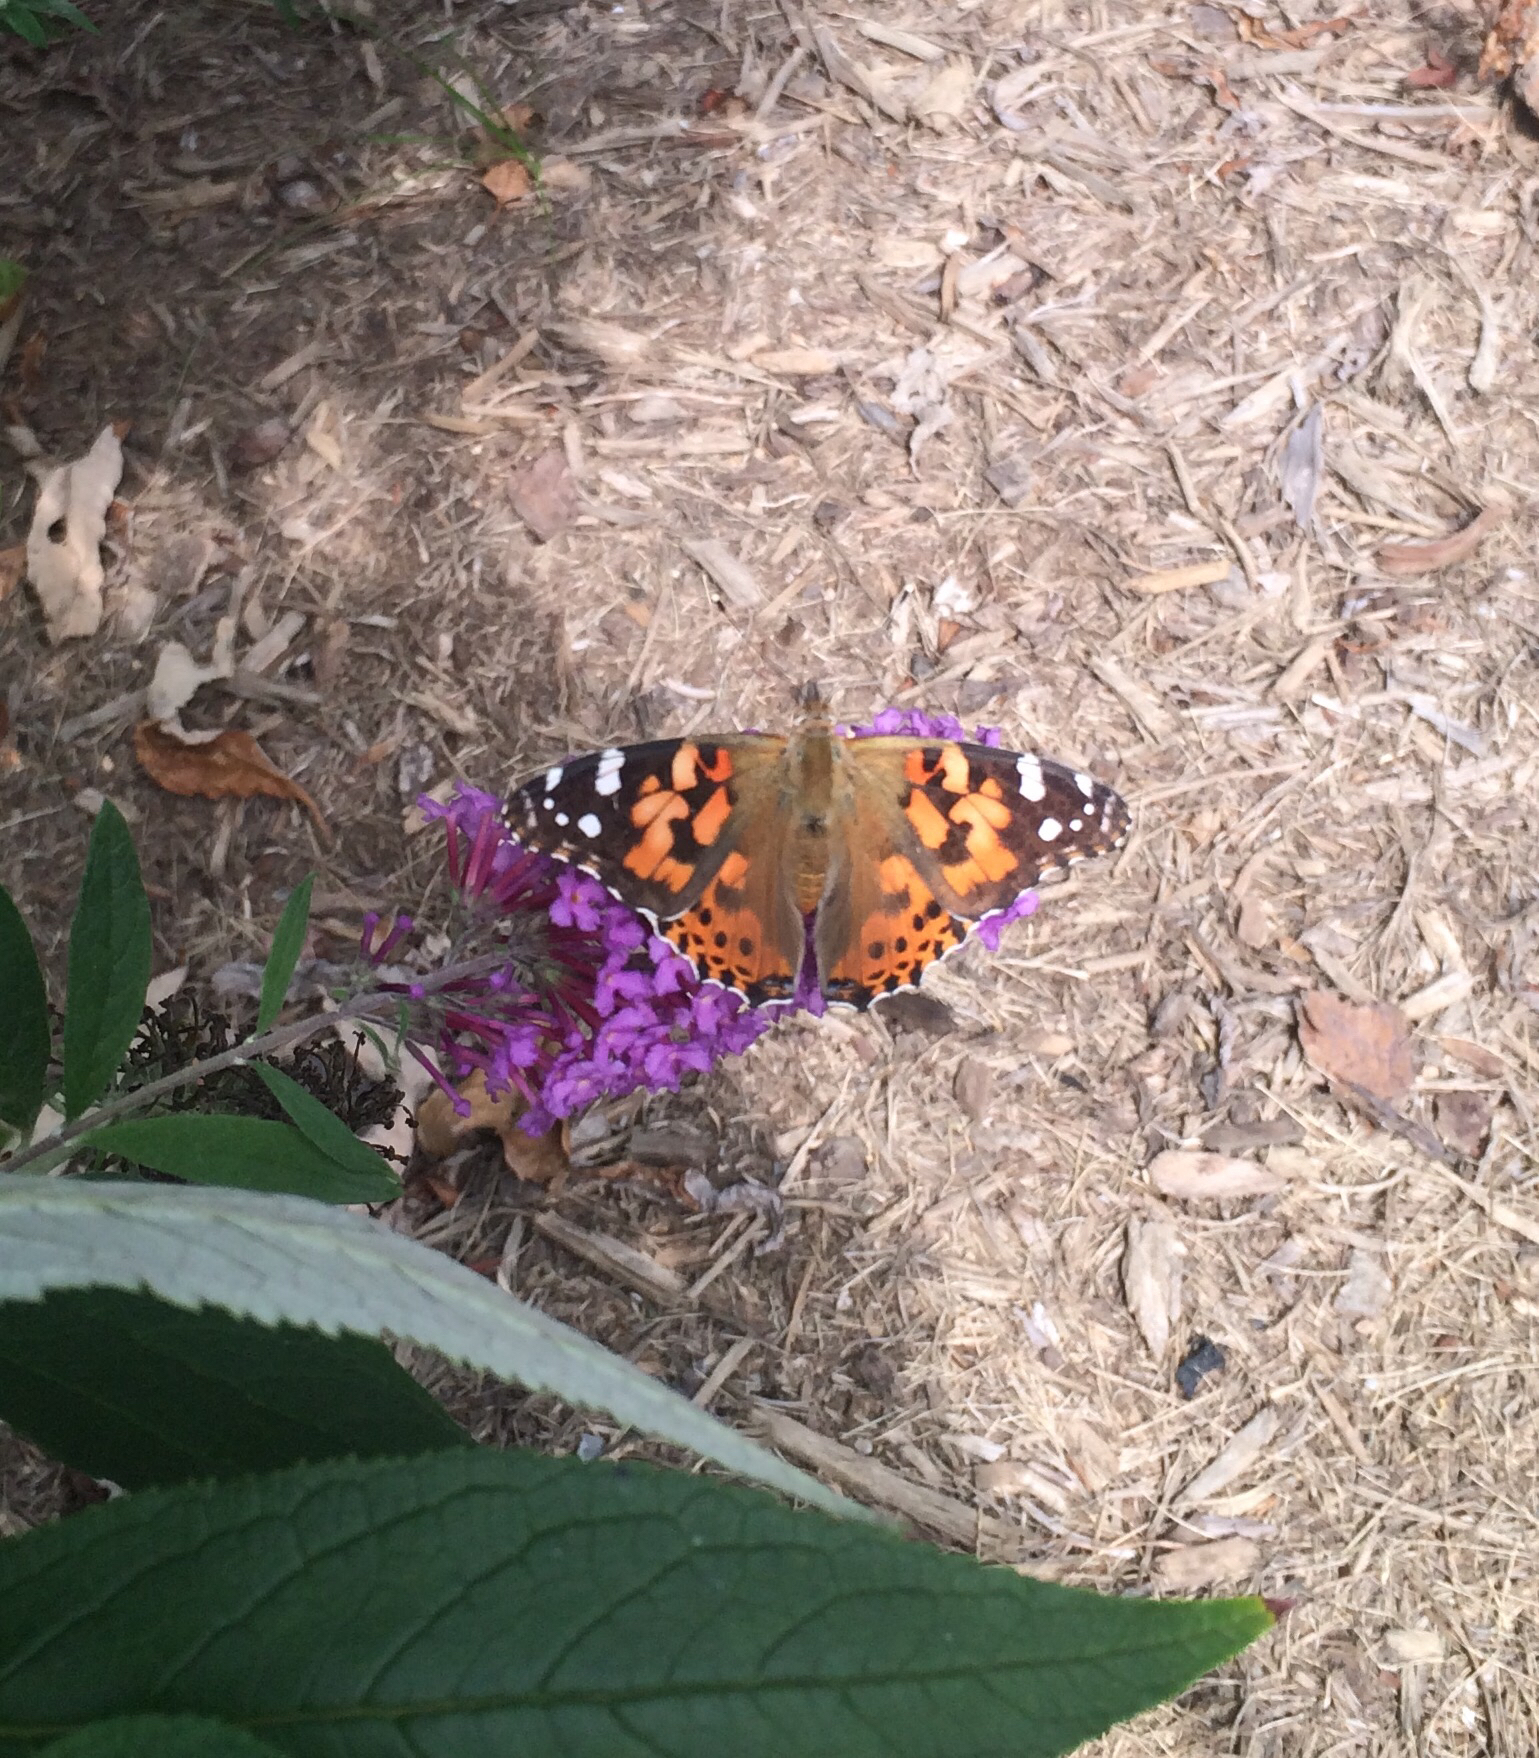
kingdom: Animalia
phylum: Arthropoda
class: Insecta
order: Lepidoptera
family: Nymphalidae
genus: Vanessa
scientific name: Vanessa cardui
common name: Painted lady
